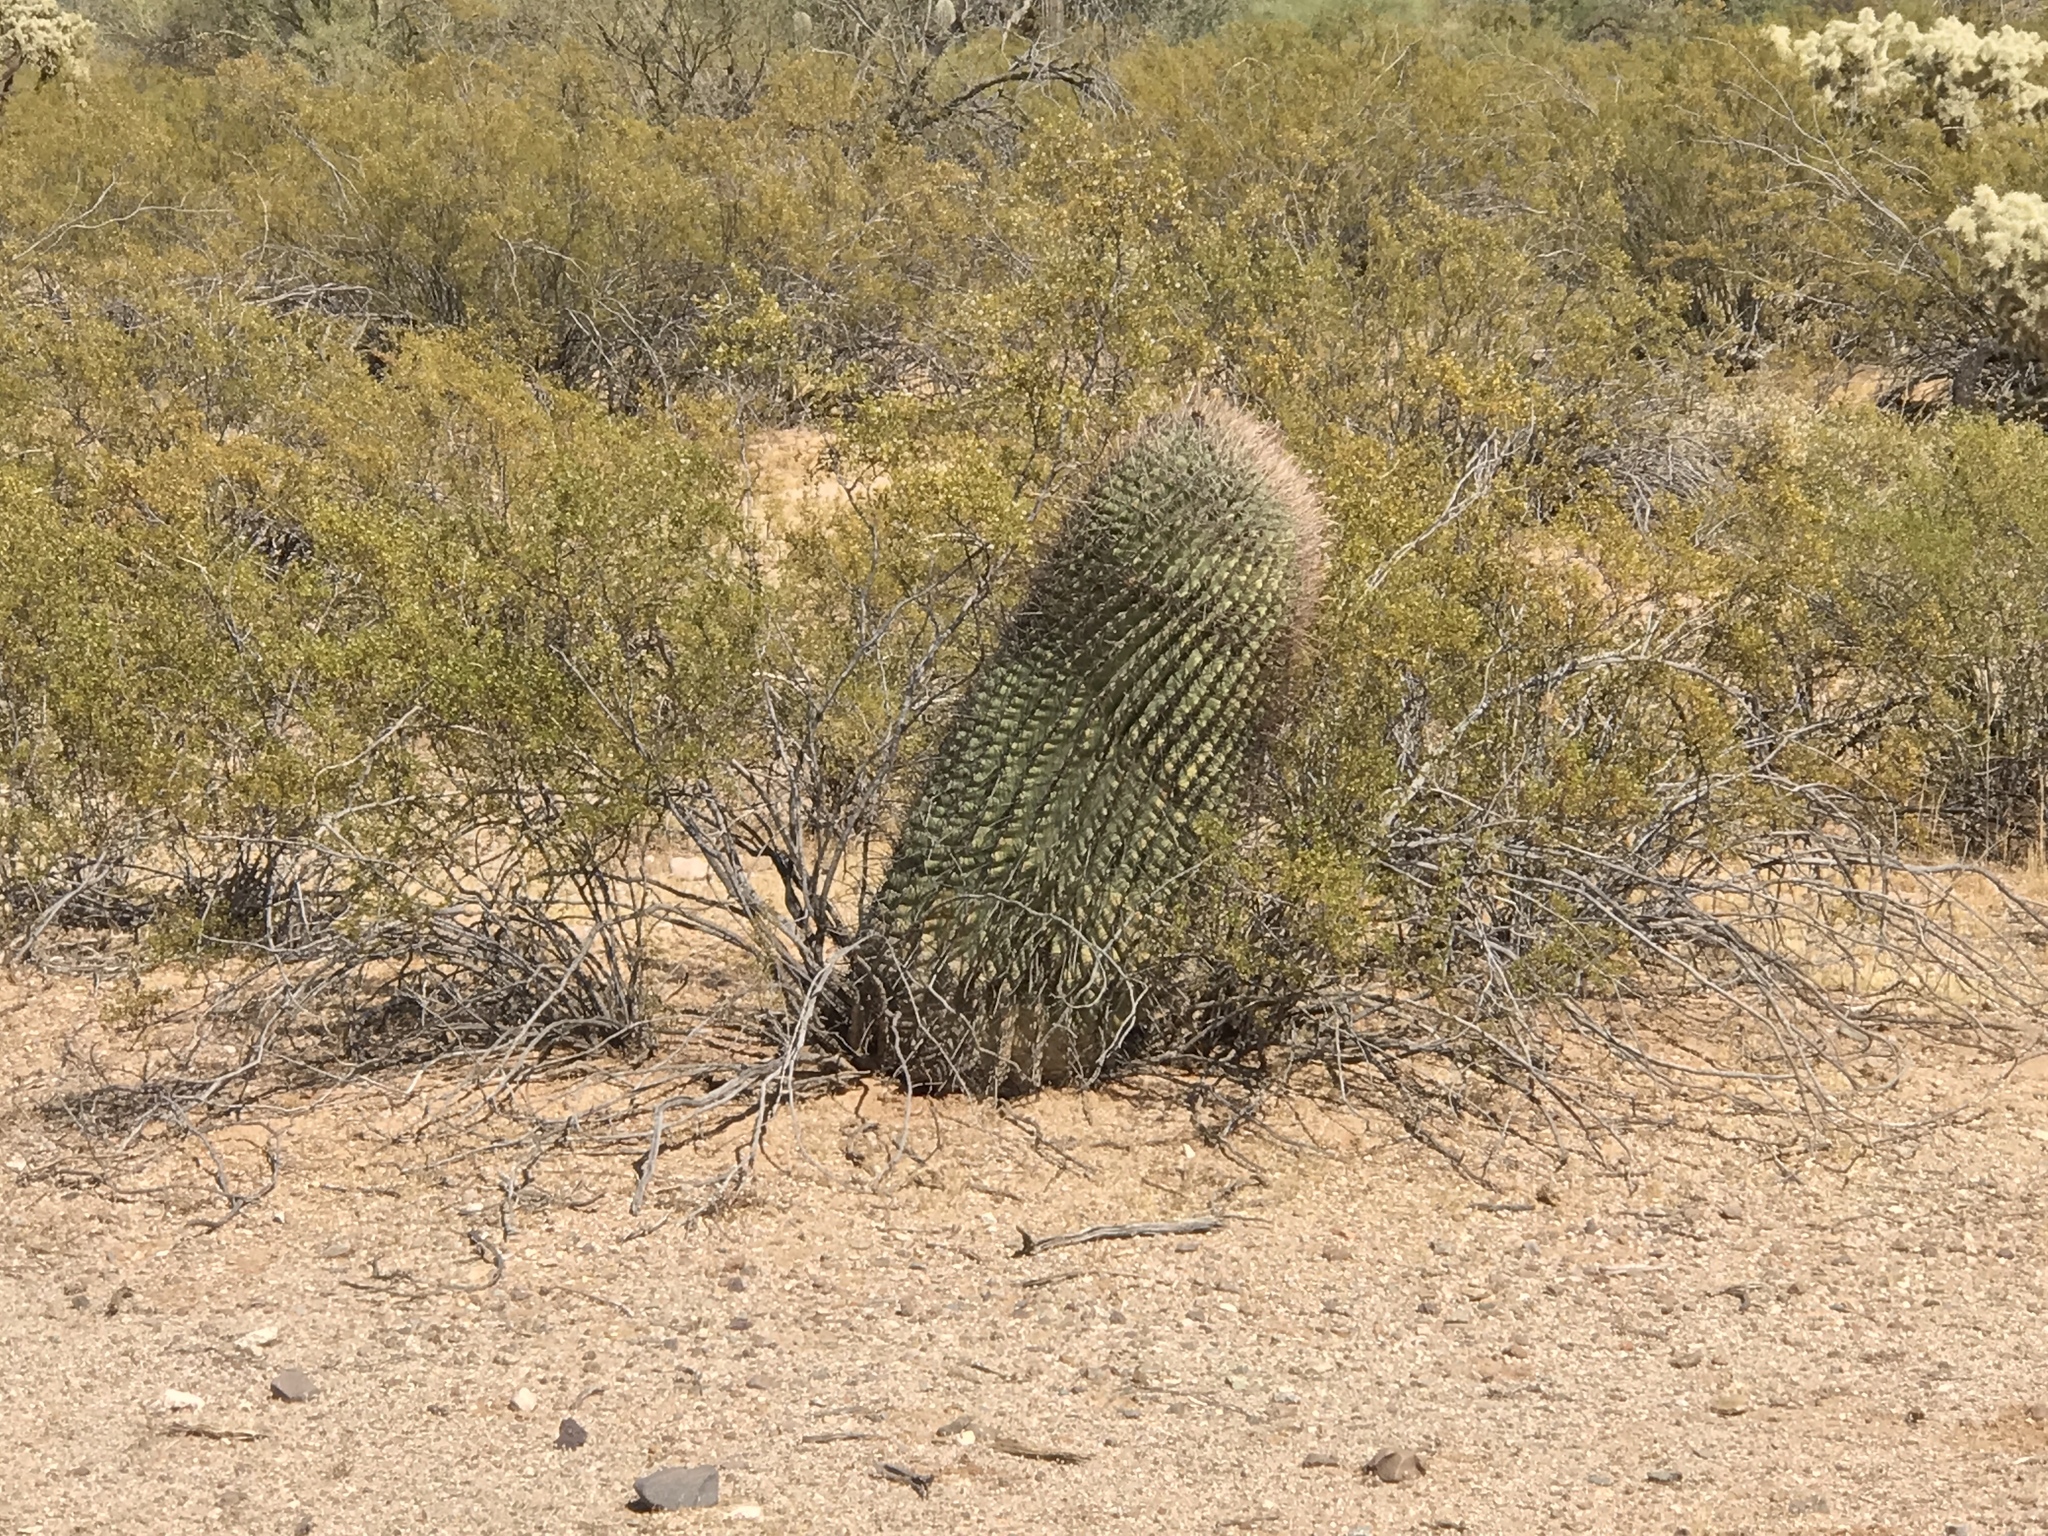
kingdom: Plantae
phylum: Tracheophyta
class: Magnoliopsida
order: Caryophyllales
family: Cactaceae
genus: Ferocactus
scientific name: Ferocactus wislizeni
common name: Candy barrel cactus
